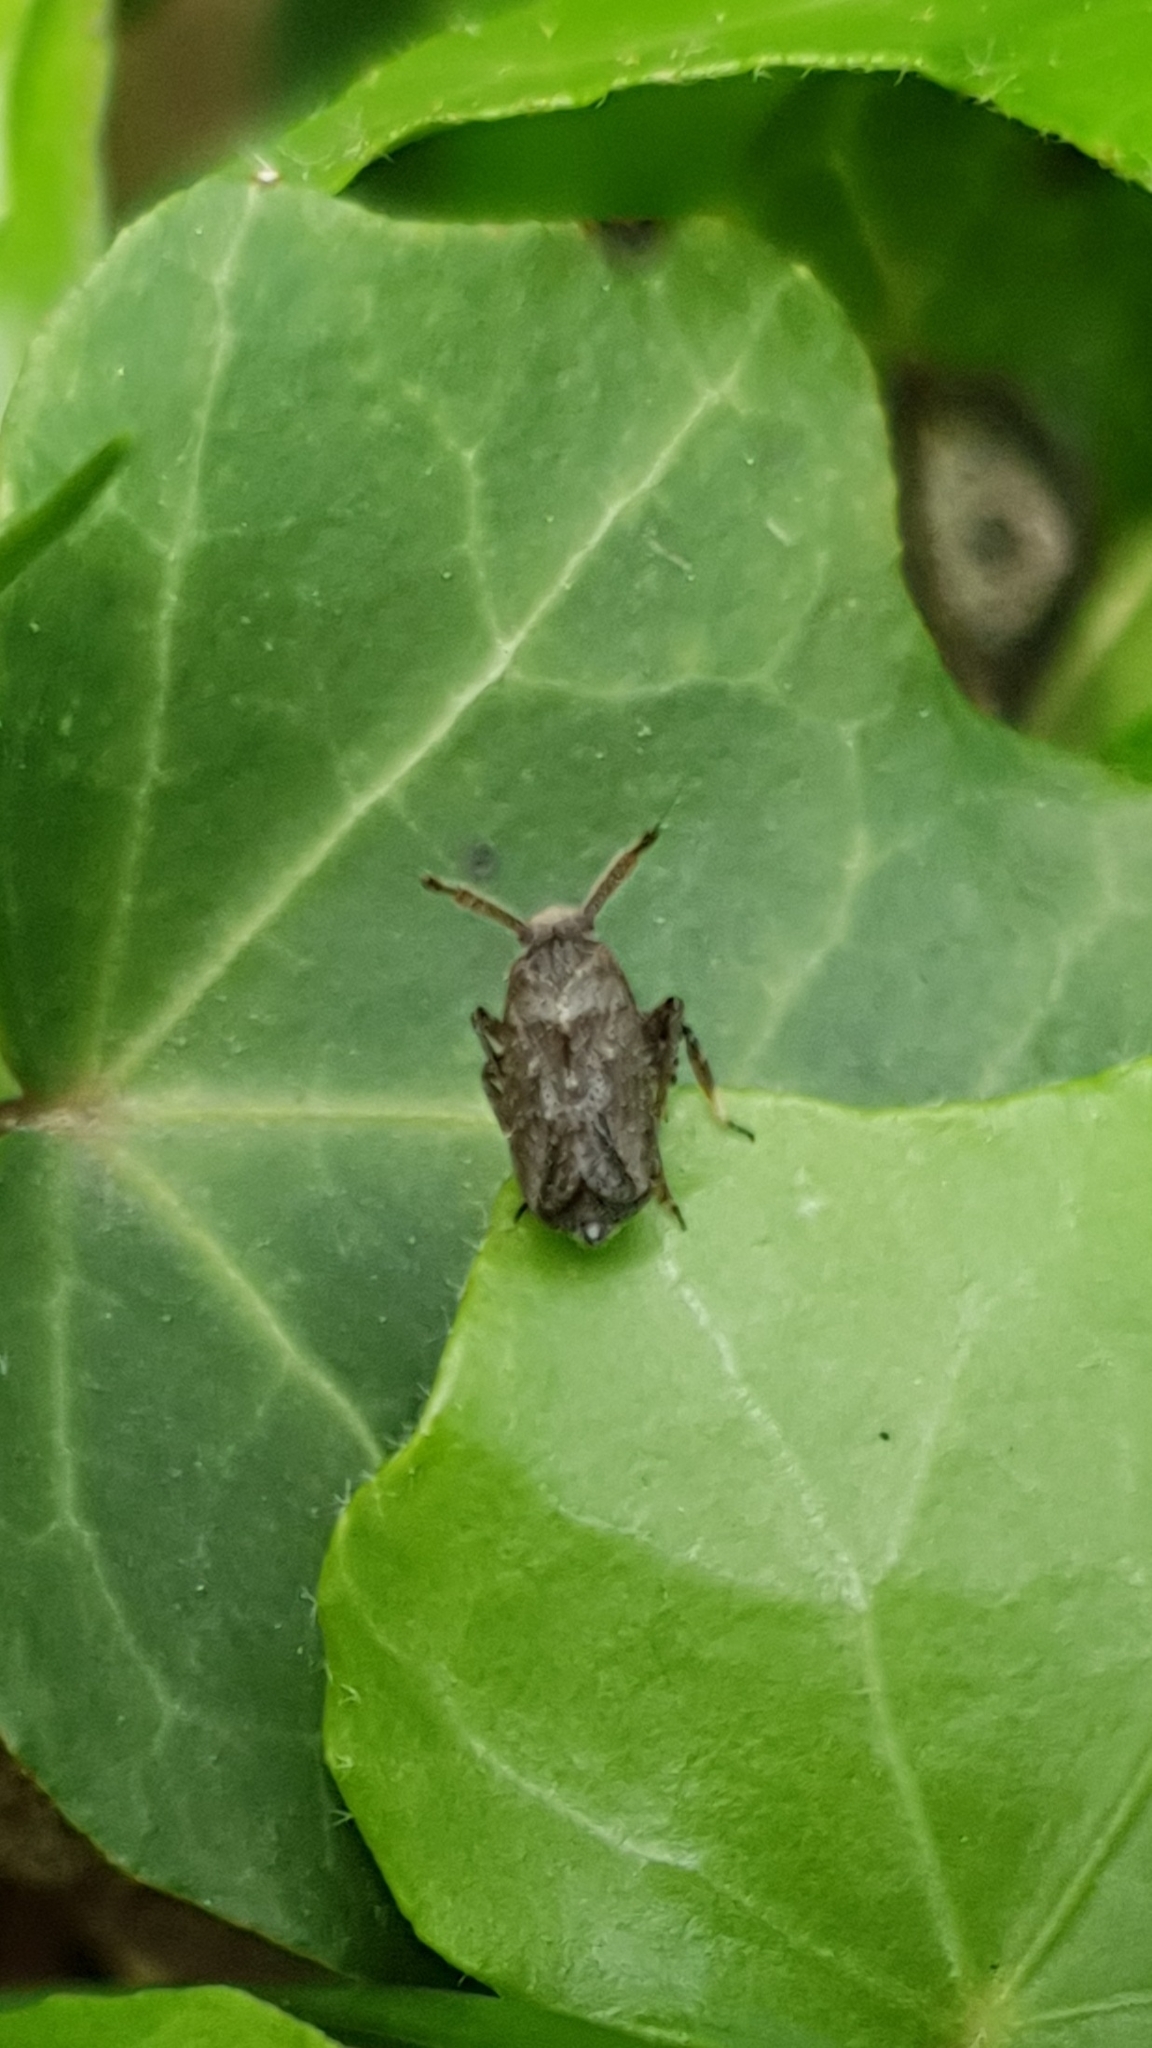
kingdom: Animalia
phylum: Arthropoda
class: Insecta
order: Hemiptera
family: Delphacidae
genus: Asiraca
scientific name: Asiraca clavicornis
